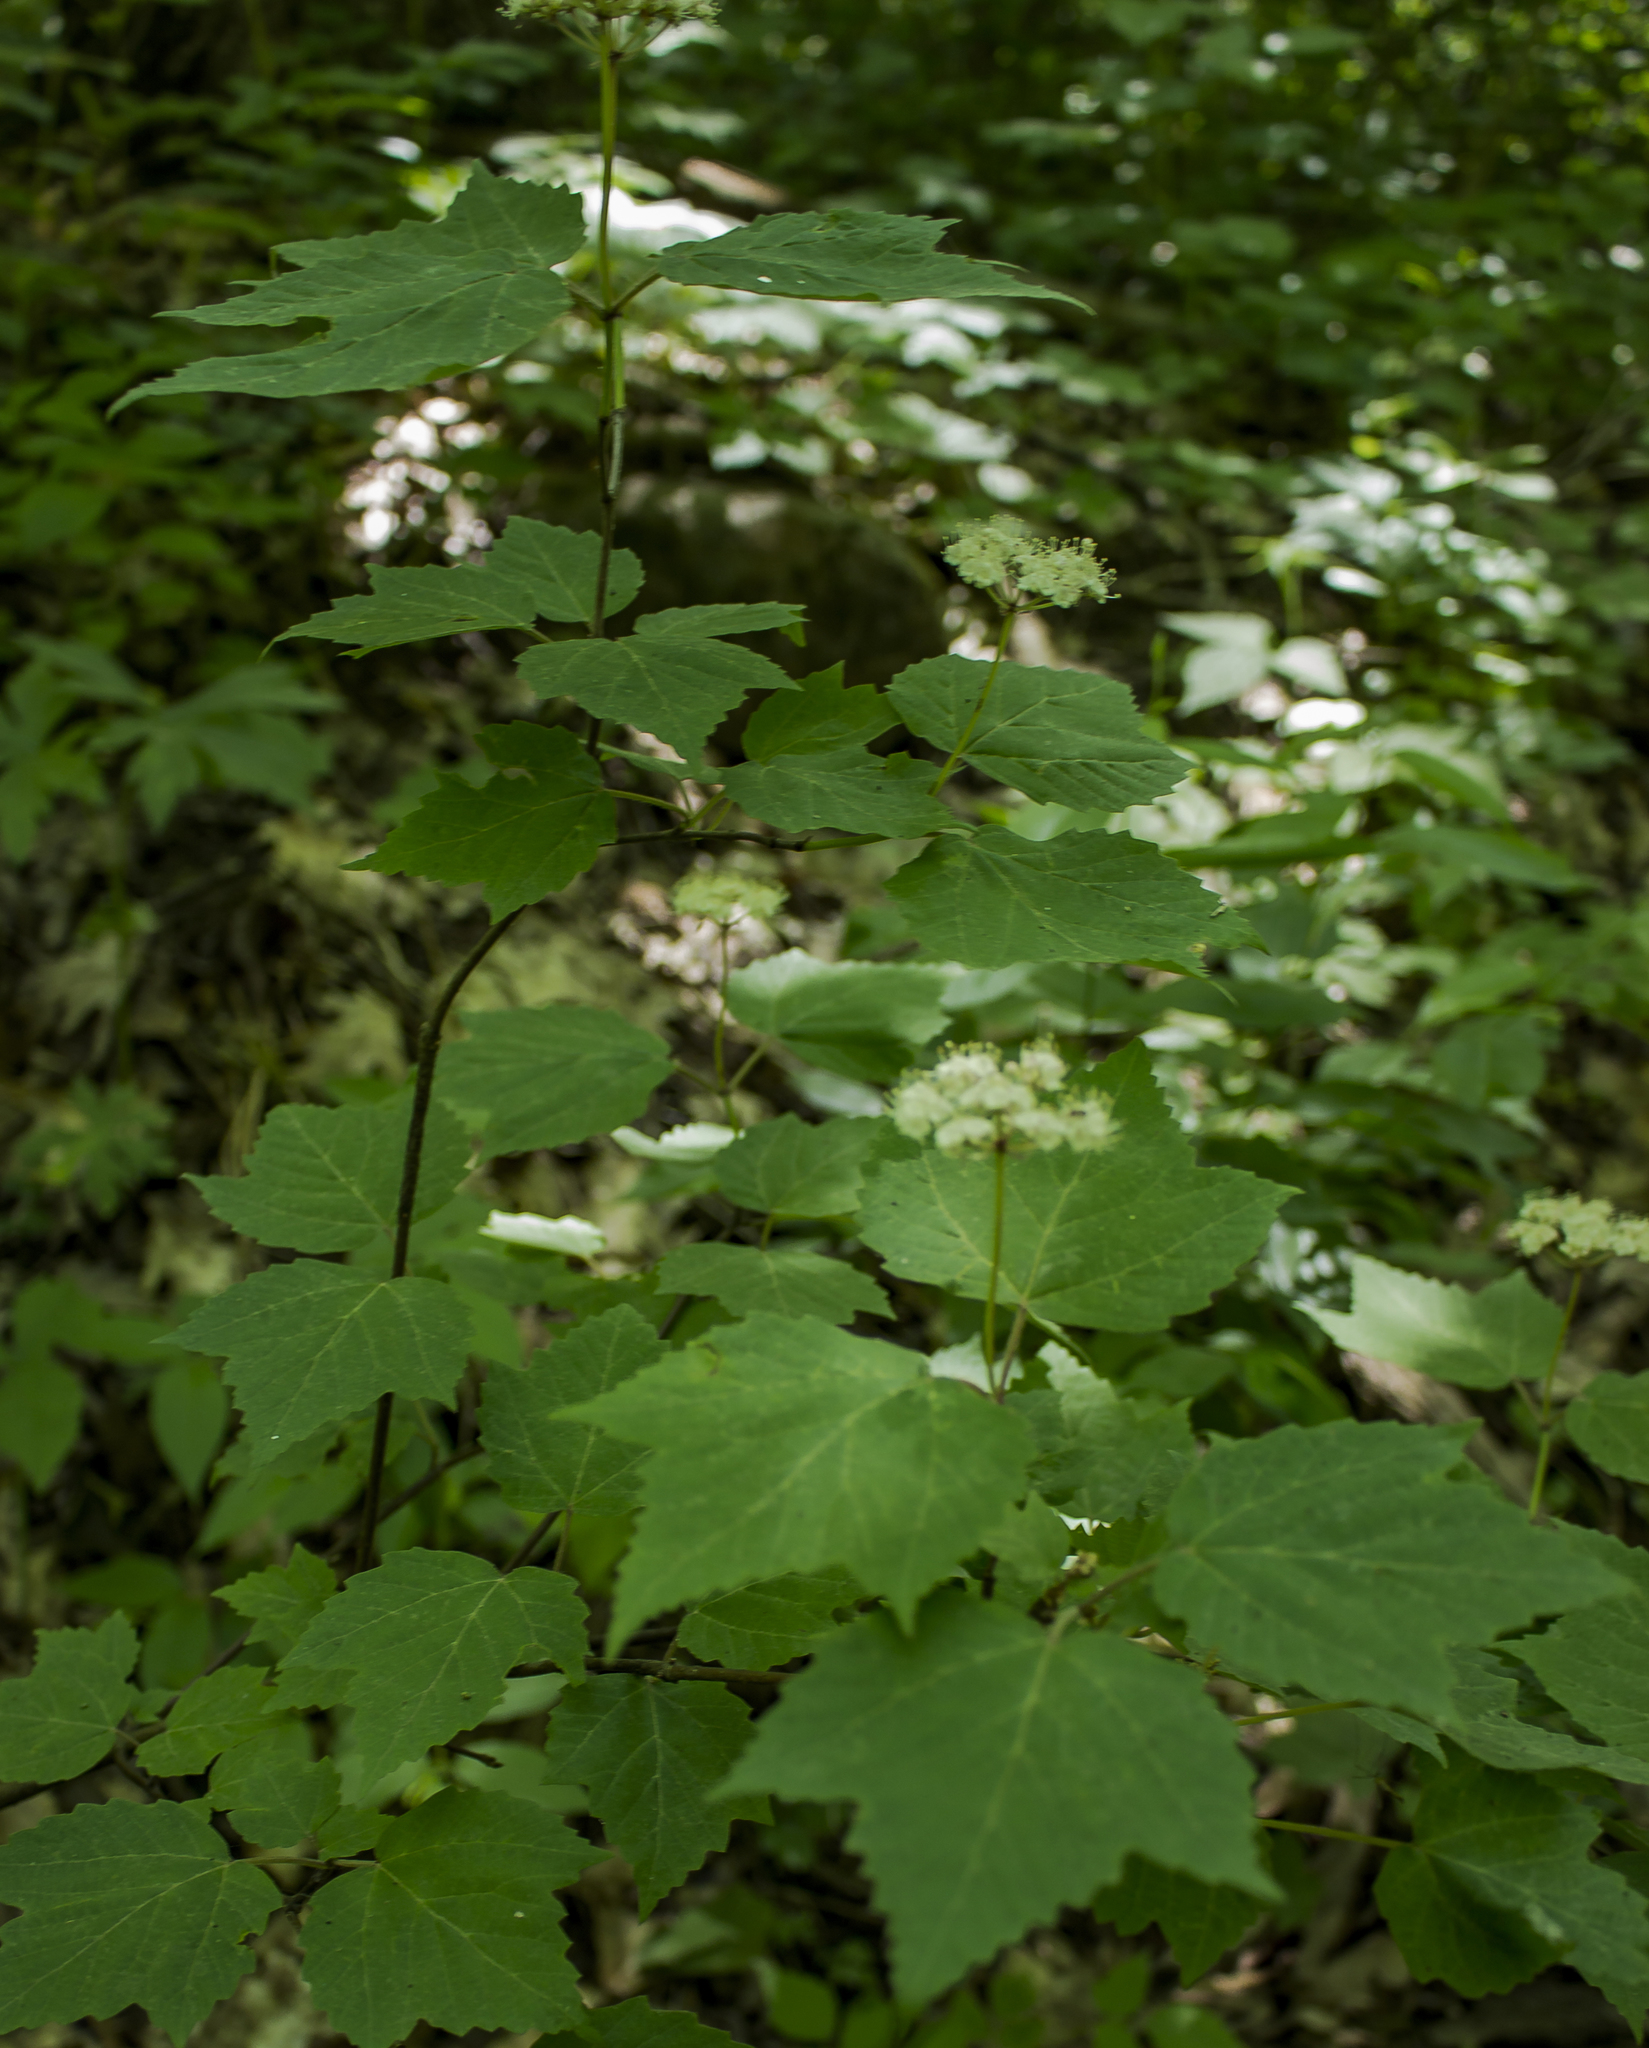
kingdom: Plantae
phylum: Tracheophyta
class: Magnoliopsida
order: Dipsacales
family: Viburnaceae
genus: Viburnum
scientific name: Viburnum acerifolium
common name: Dockmackie
